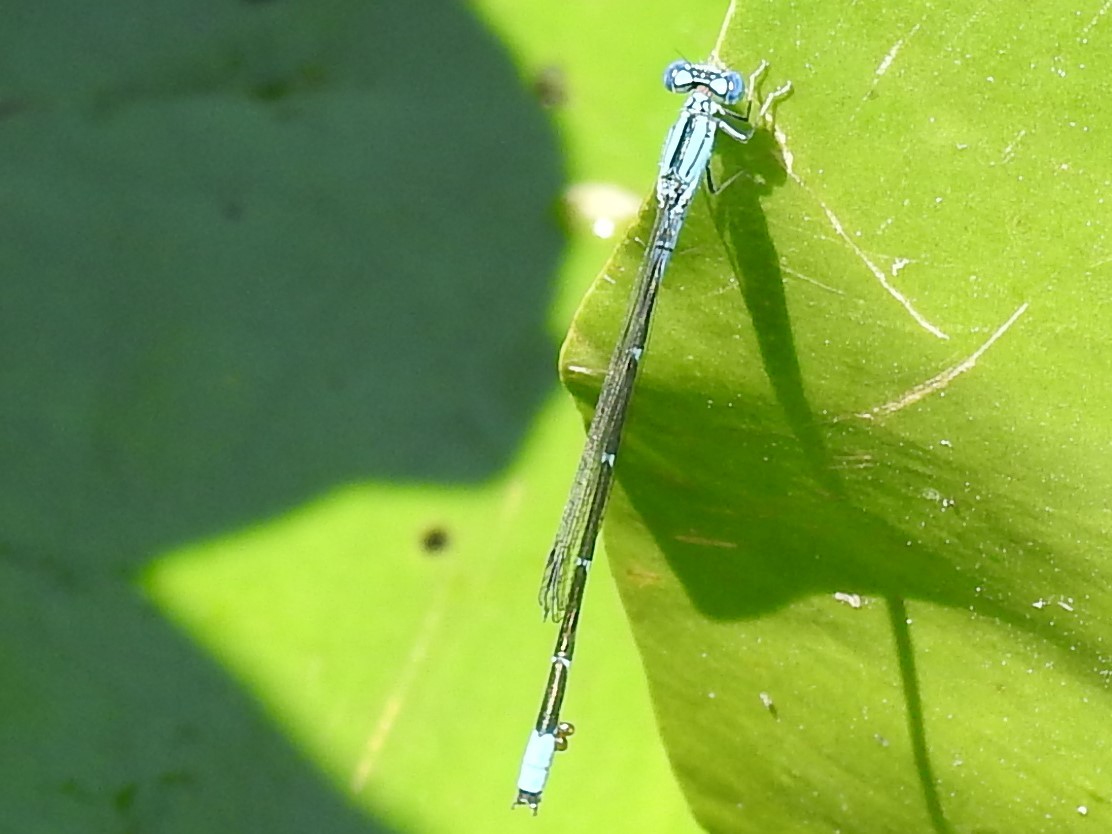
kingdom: Animalia
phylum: Arthropoda
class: Insecta
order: Odonata
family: Coenagrionidae
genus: Enallagma
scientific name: Enallagma traviatum
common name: Slender bluet
